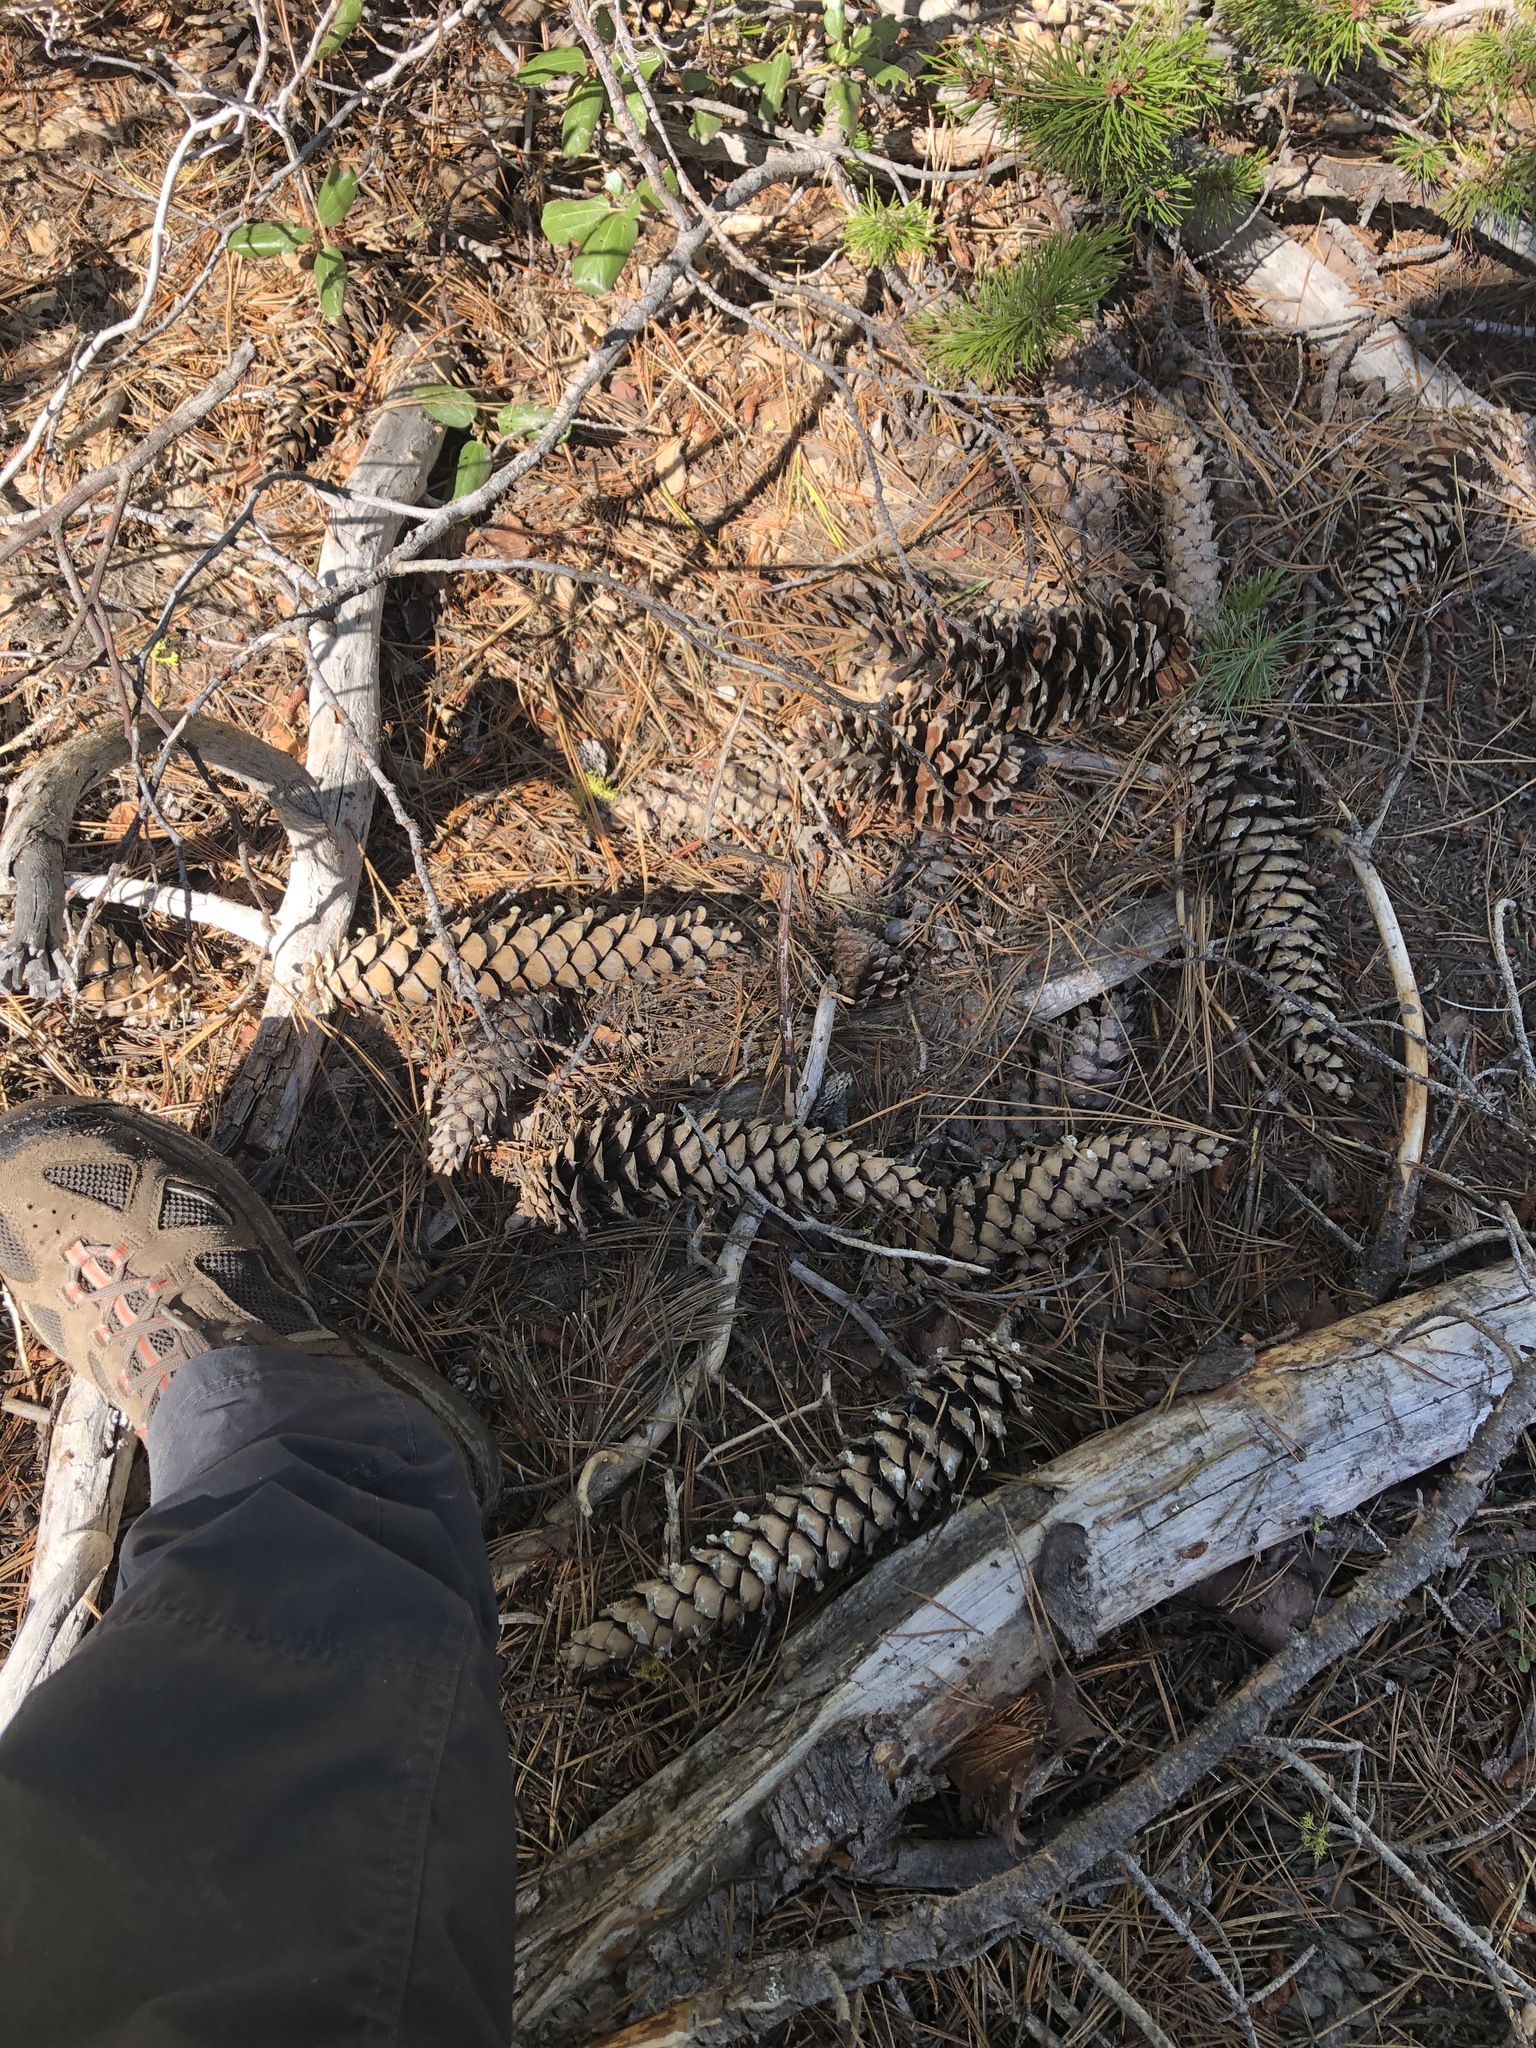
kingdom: Plantae
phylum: Tracheophyta
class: Pinopsida
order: Pinales
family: Pinaceae
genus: Pinus
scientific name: Pinus monticola
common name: Western white pine
